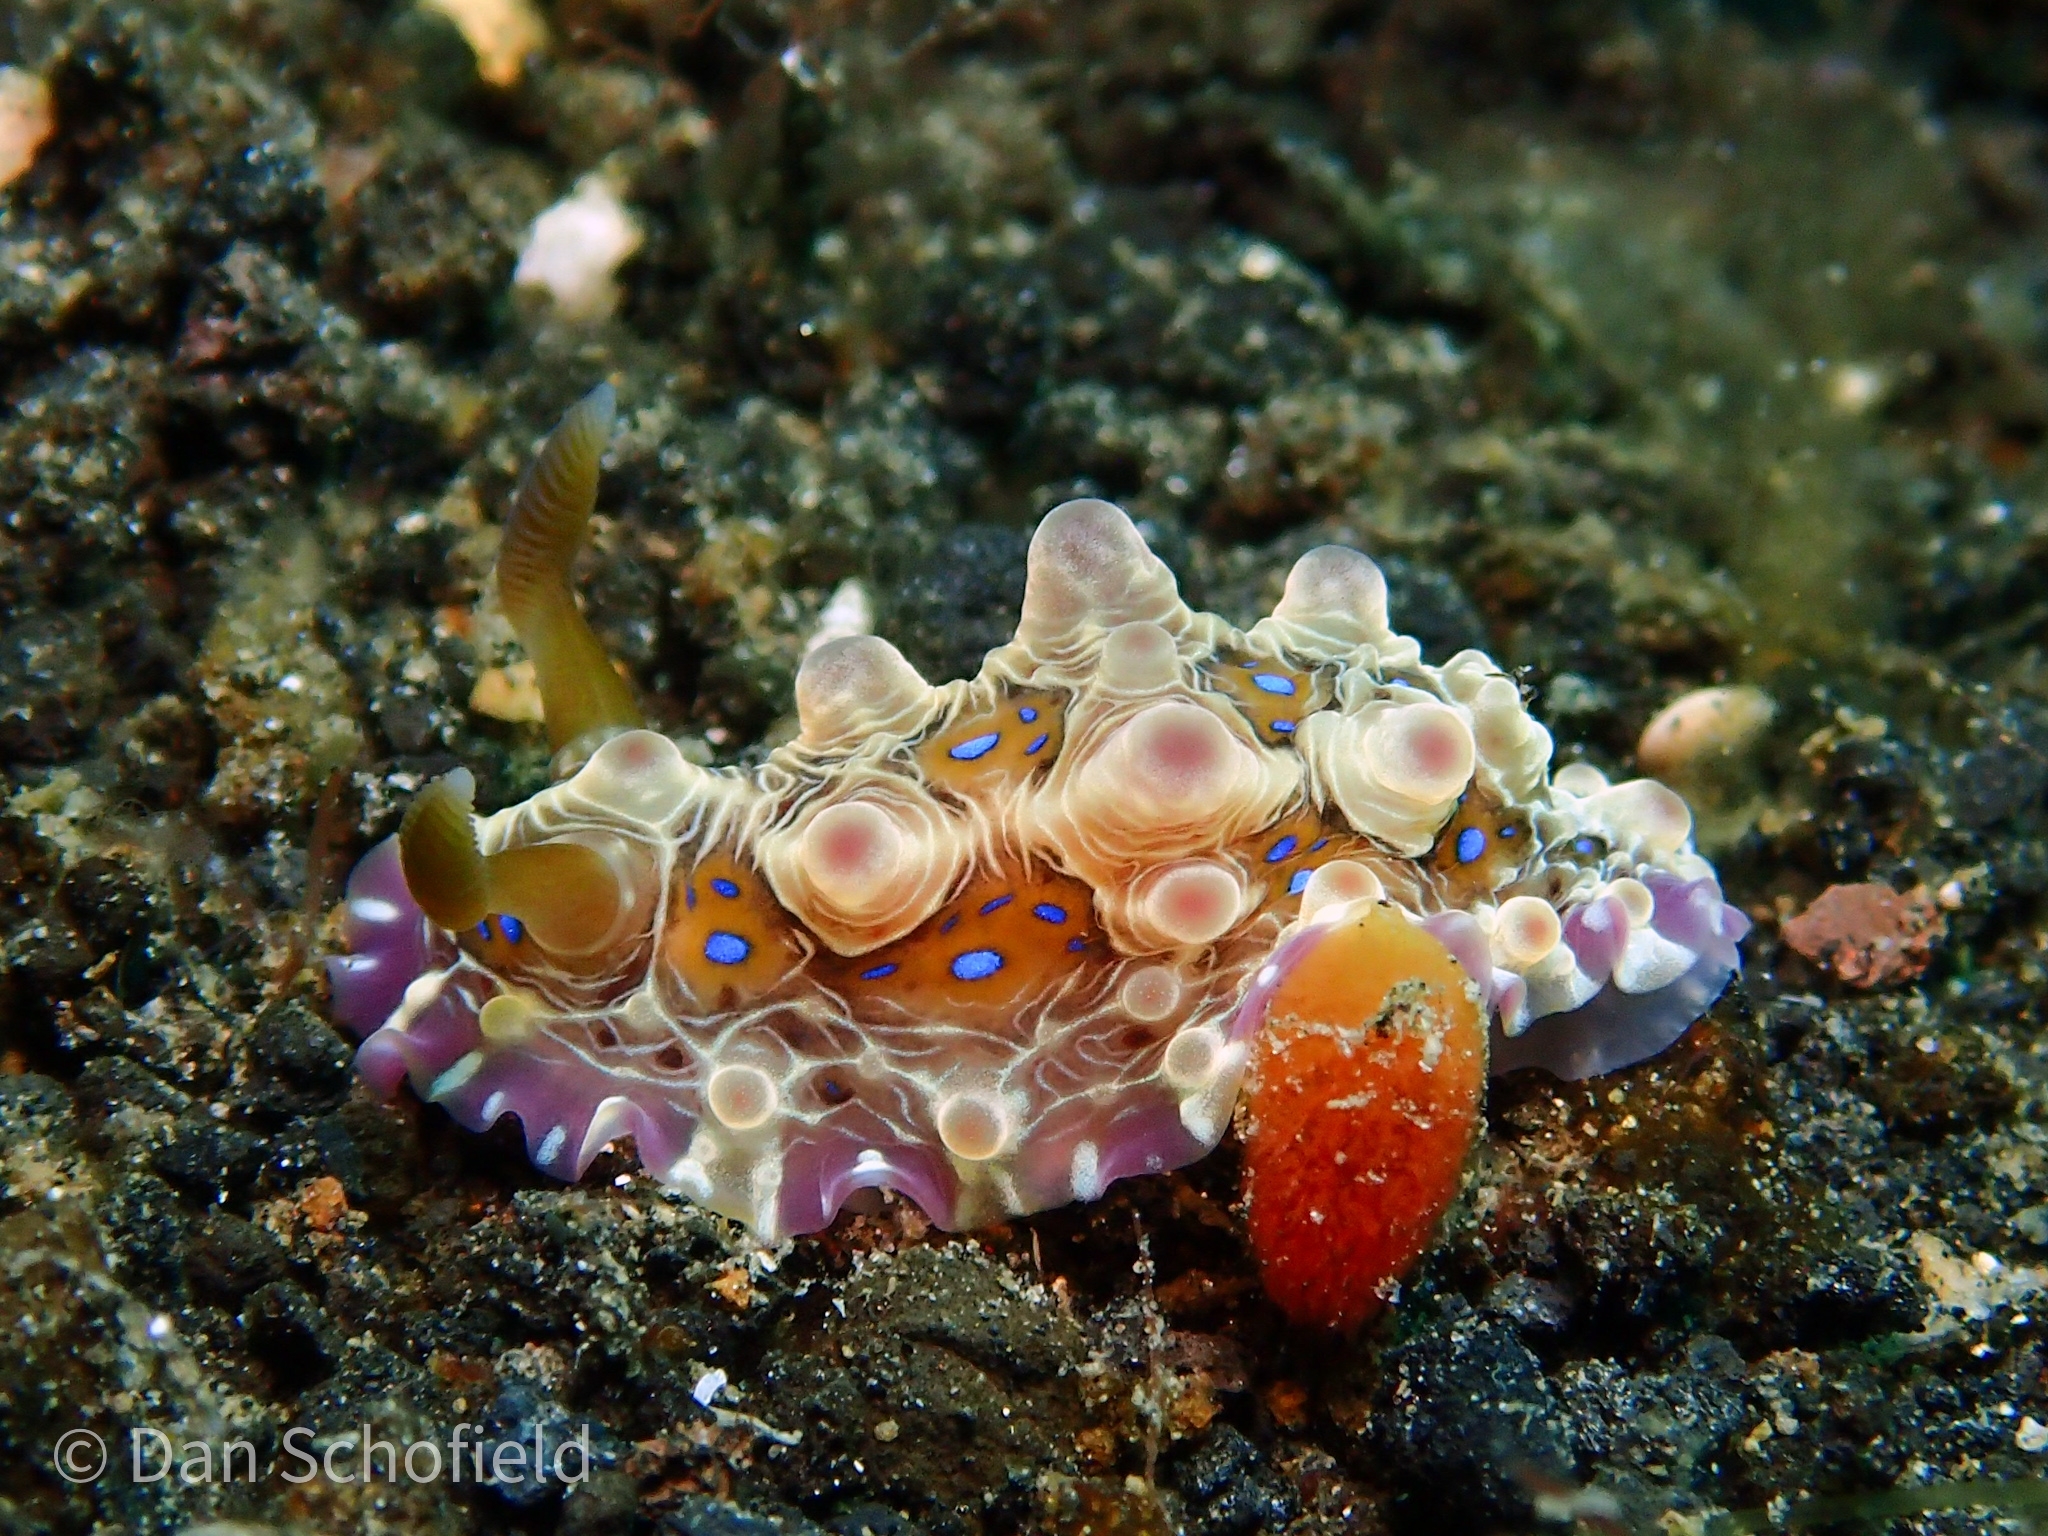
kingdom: Animalia
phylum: Mollusca
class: Gastropoda
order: Nudibranchia
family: Dendrodorididae
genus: Dendrodoris
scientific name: Dendrodoris krusensternii
